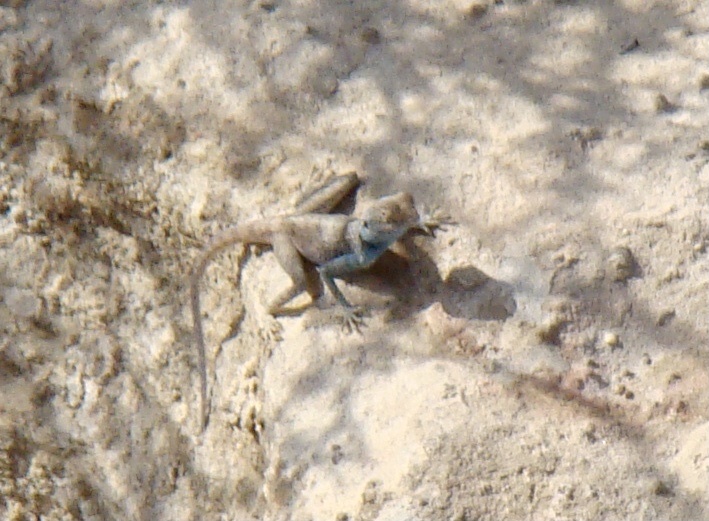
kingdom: Animalia
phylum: Chordata
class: Squamata
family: Agamidae
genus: Pseudotrapelus
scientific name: Pseudotrapelus sinaitus
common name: Sinai agama
